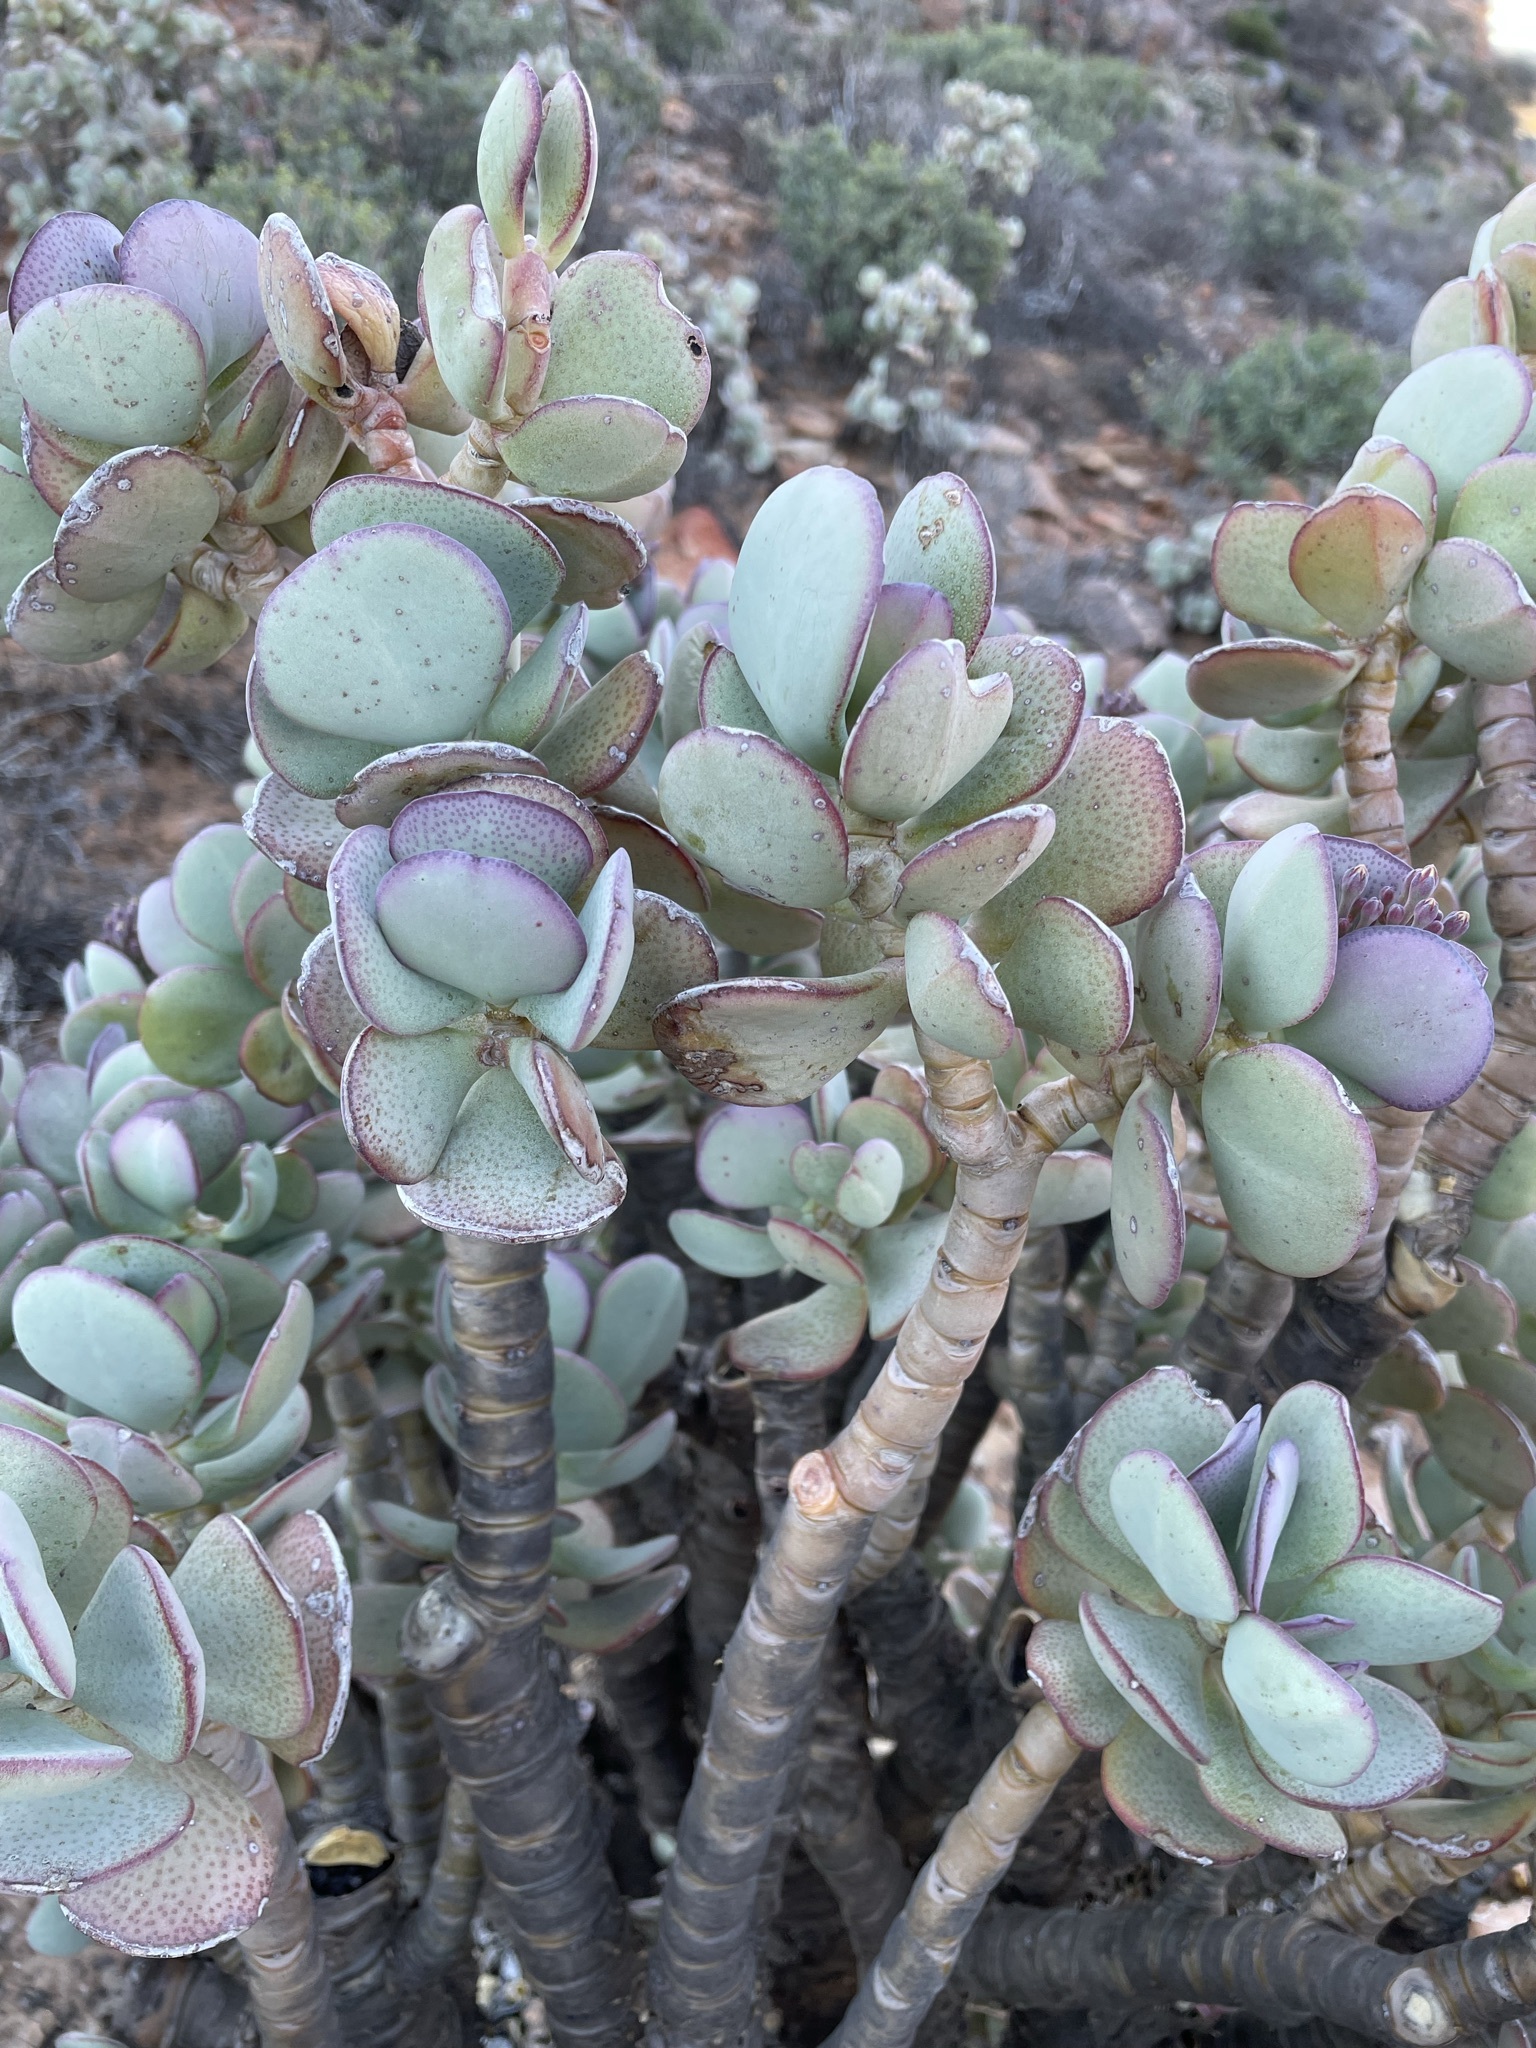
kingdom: Plantae
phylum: Tracheophyta
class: Magnoliopsida
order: Saxifragales
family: Crassulaceae
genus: Crassula
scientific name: Crassula arborescens
